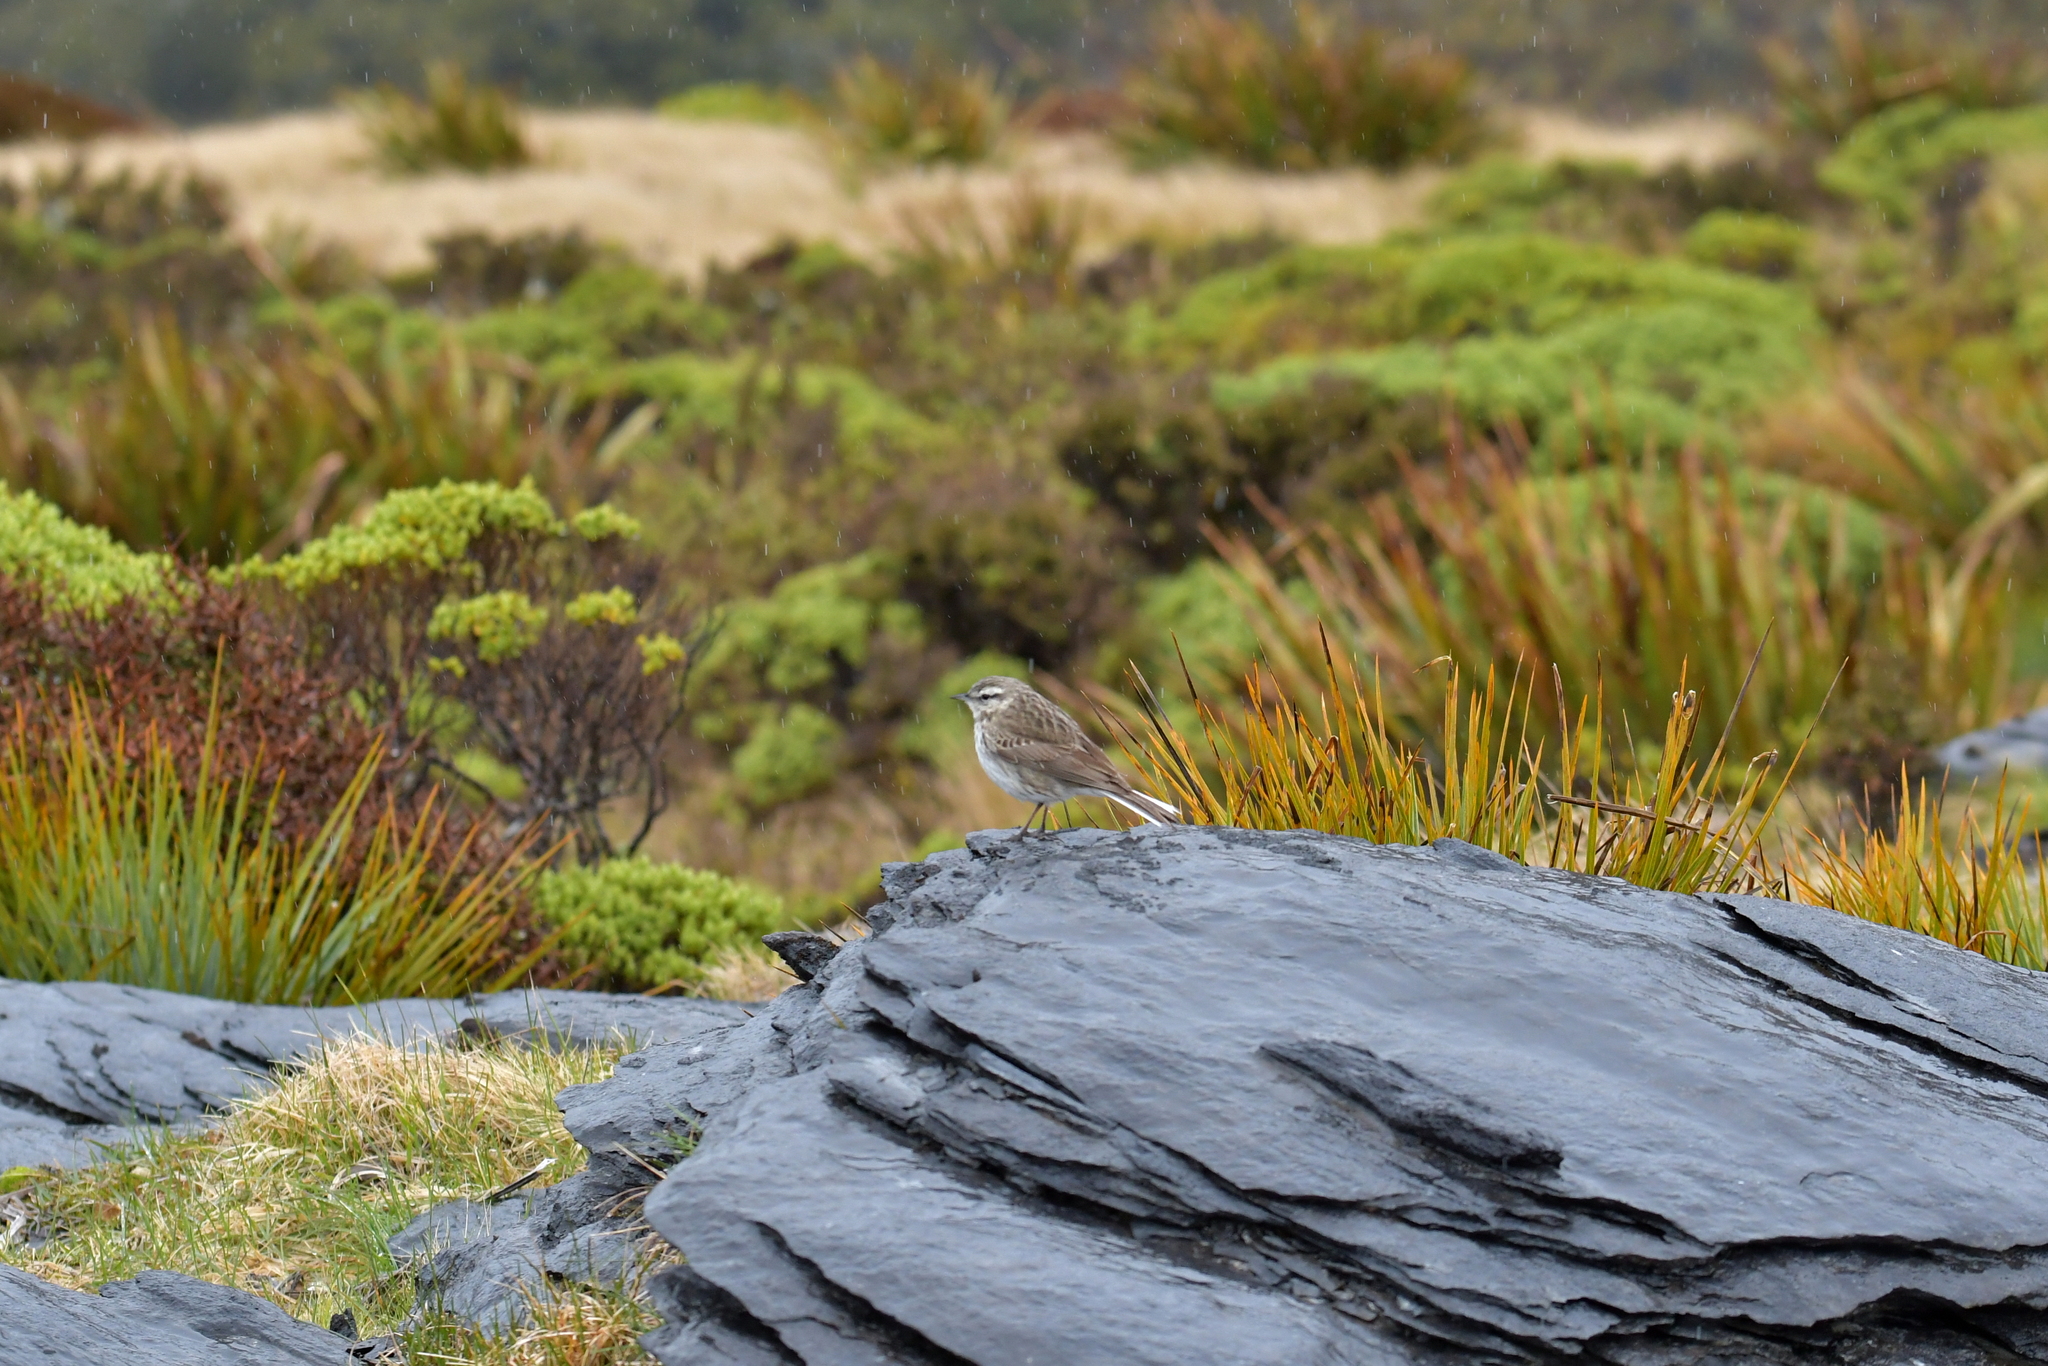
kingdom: Animalia
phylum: Chordata
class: Aves
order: Passeriformes
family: Motacillidae
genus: Anthus
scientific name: Anthus novaeseelandiae
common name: New zealand pipit
